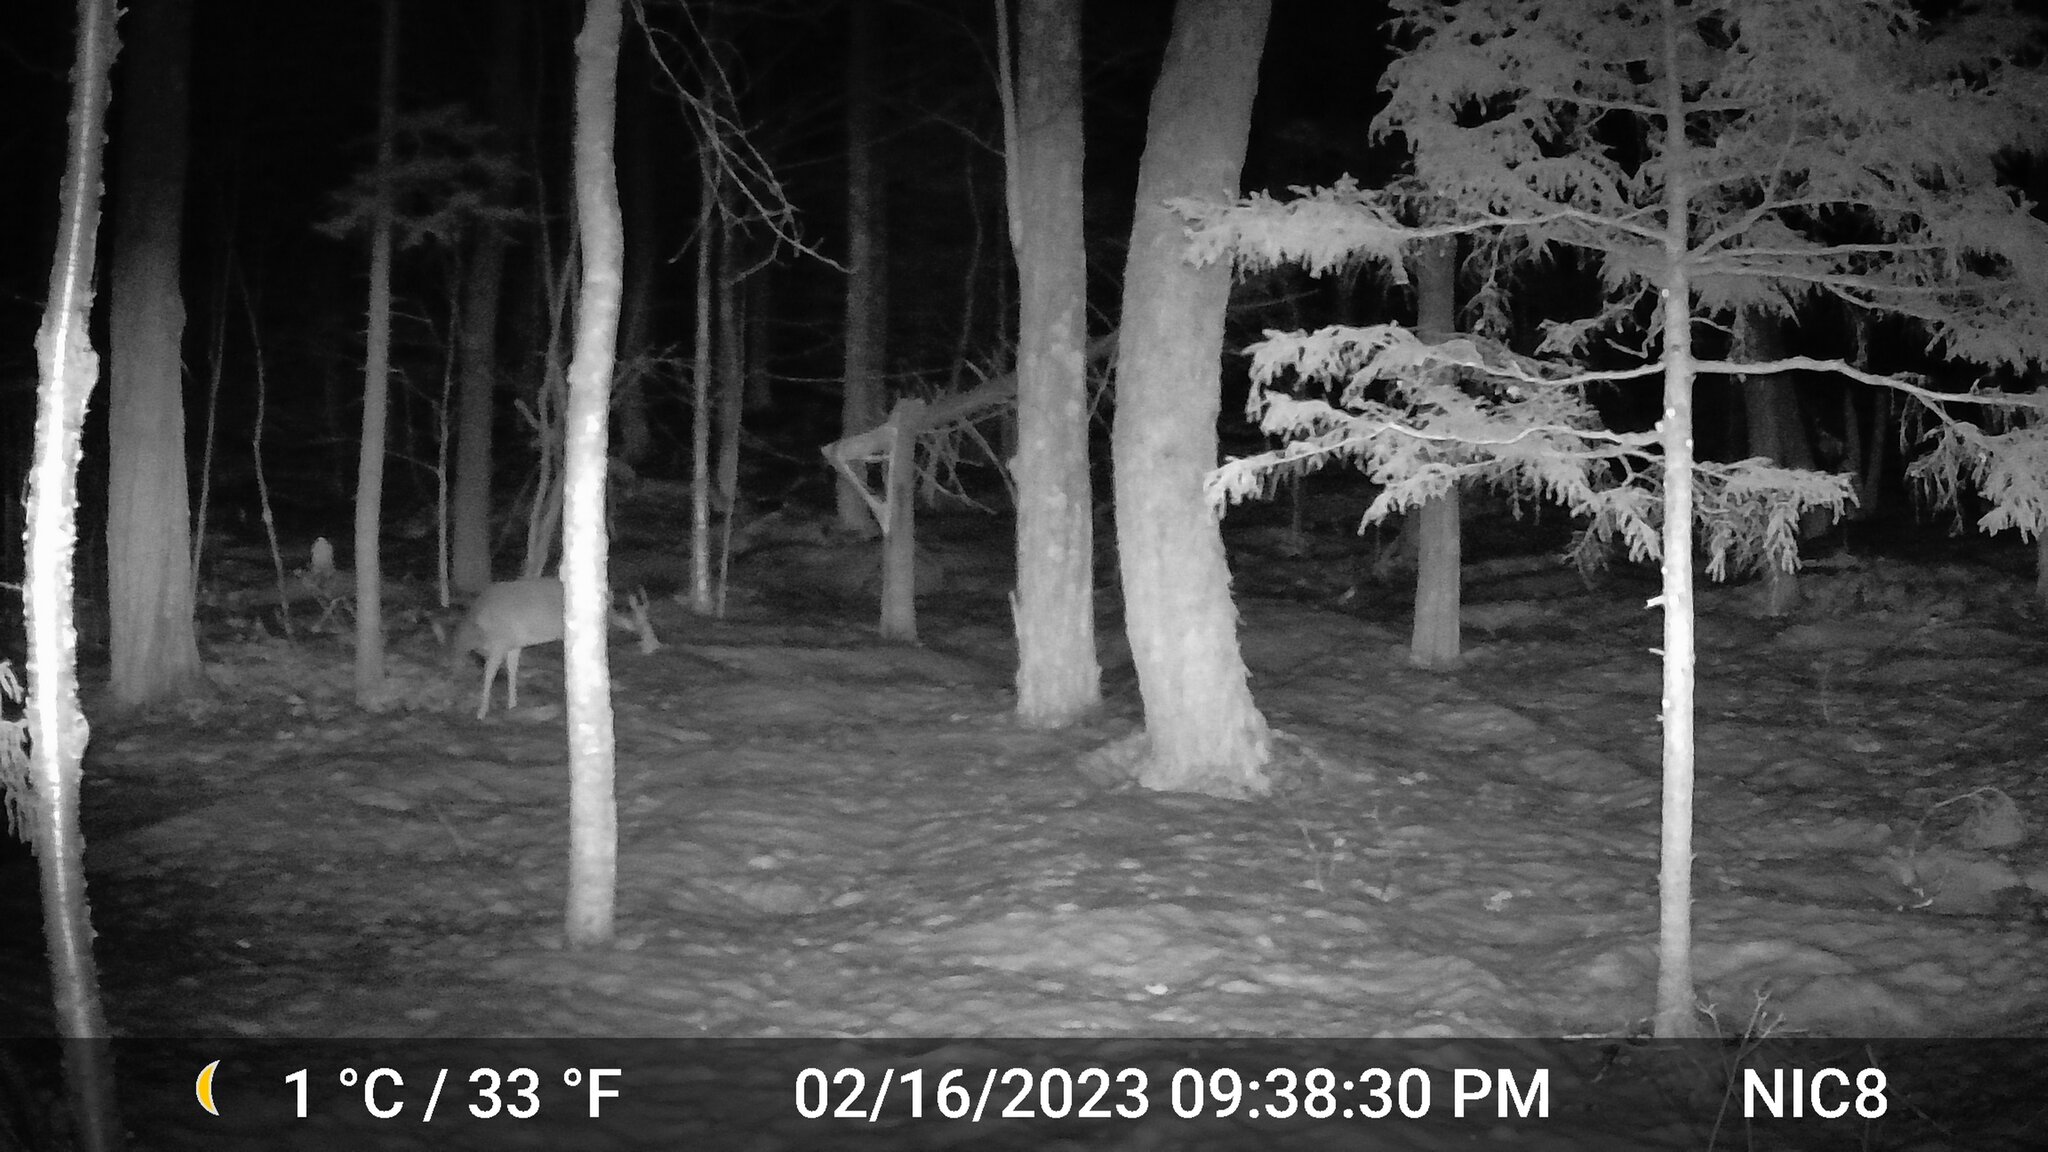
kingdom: Animalia
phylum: Chordata
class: Mammalia
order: Artiodactyla
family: Cervidae
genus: Odocoileus
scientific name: Odocoileus virginianus
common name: White-tailed deer
